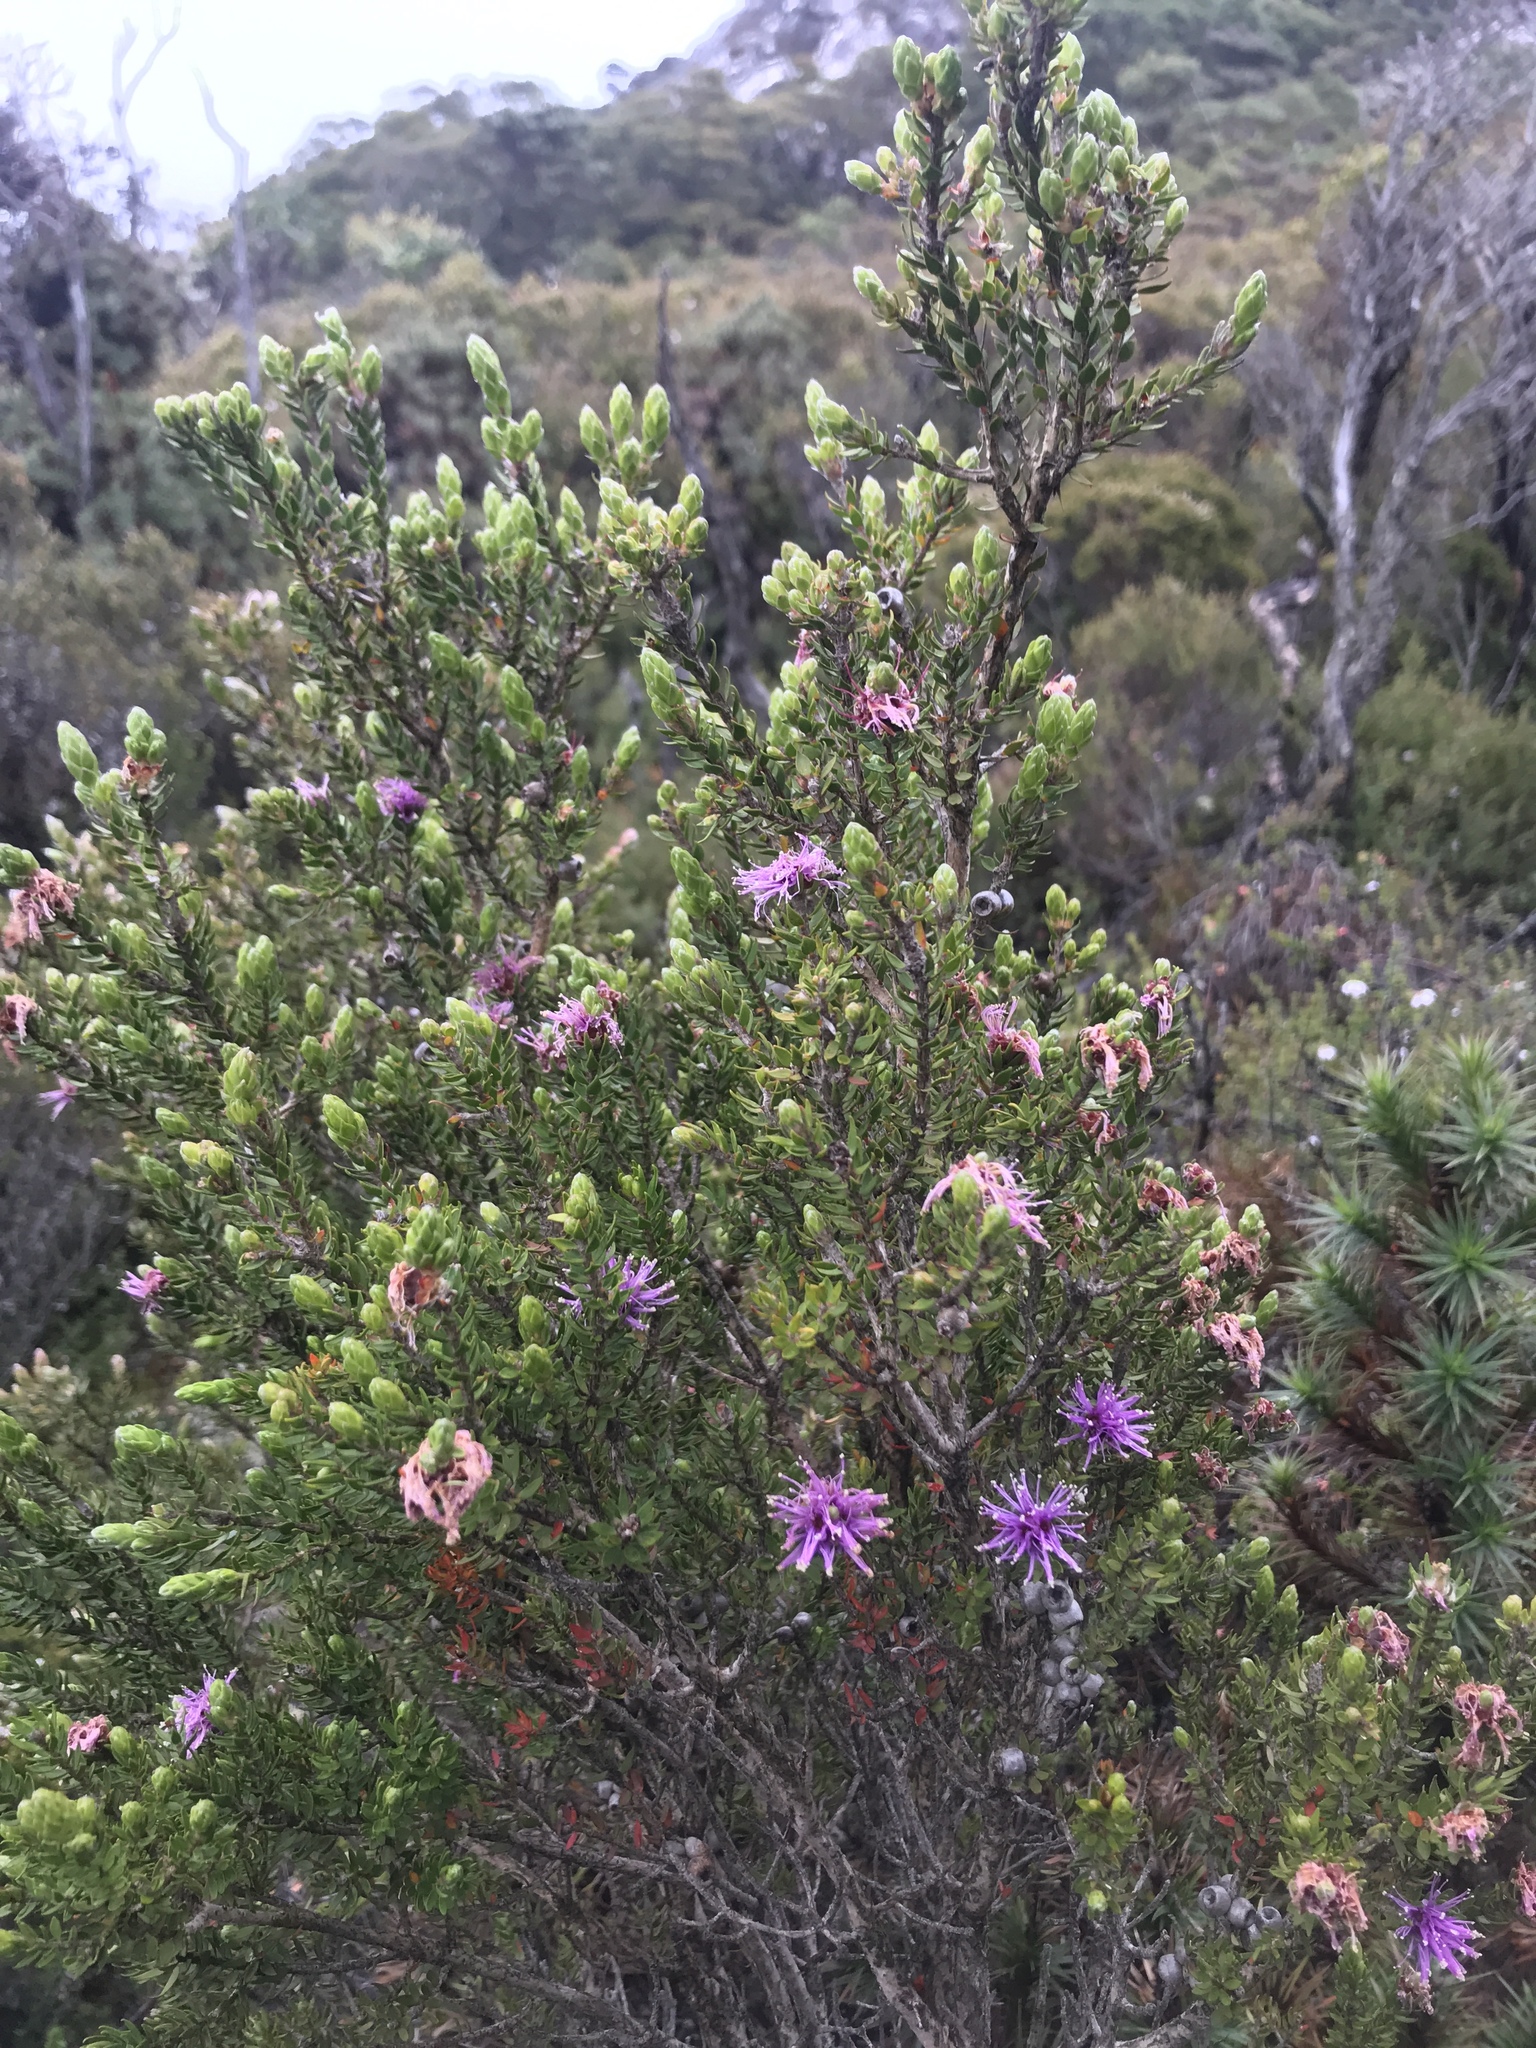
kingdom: Plantae
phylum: Tracheophyta
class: Magnoliopsida
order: Myrtales
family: Myrtaceae
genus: Melaleuca
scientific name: Melaleuca squamea
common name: Swamp melaleuca
